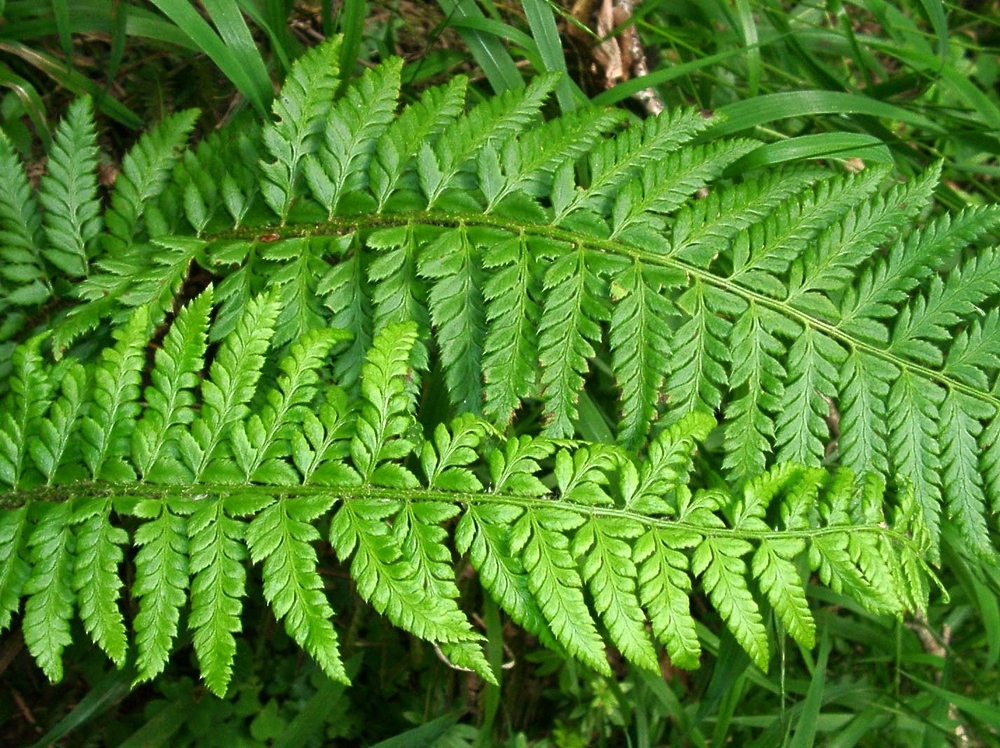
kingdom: Plantae
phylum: Tracheophyta
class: Polypodiopsida
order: Polypodiales
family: Dryopteridaceae
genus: Polystichum
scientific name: Polystichum aculeatum
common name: Hard shield-fern
